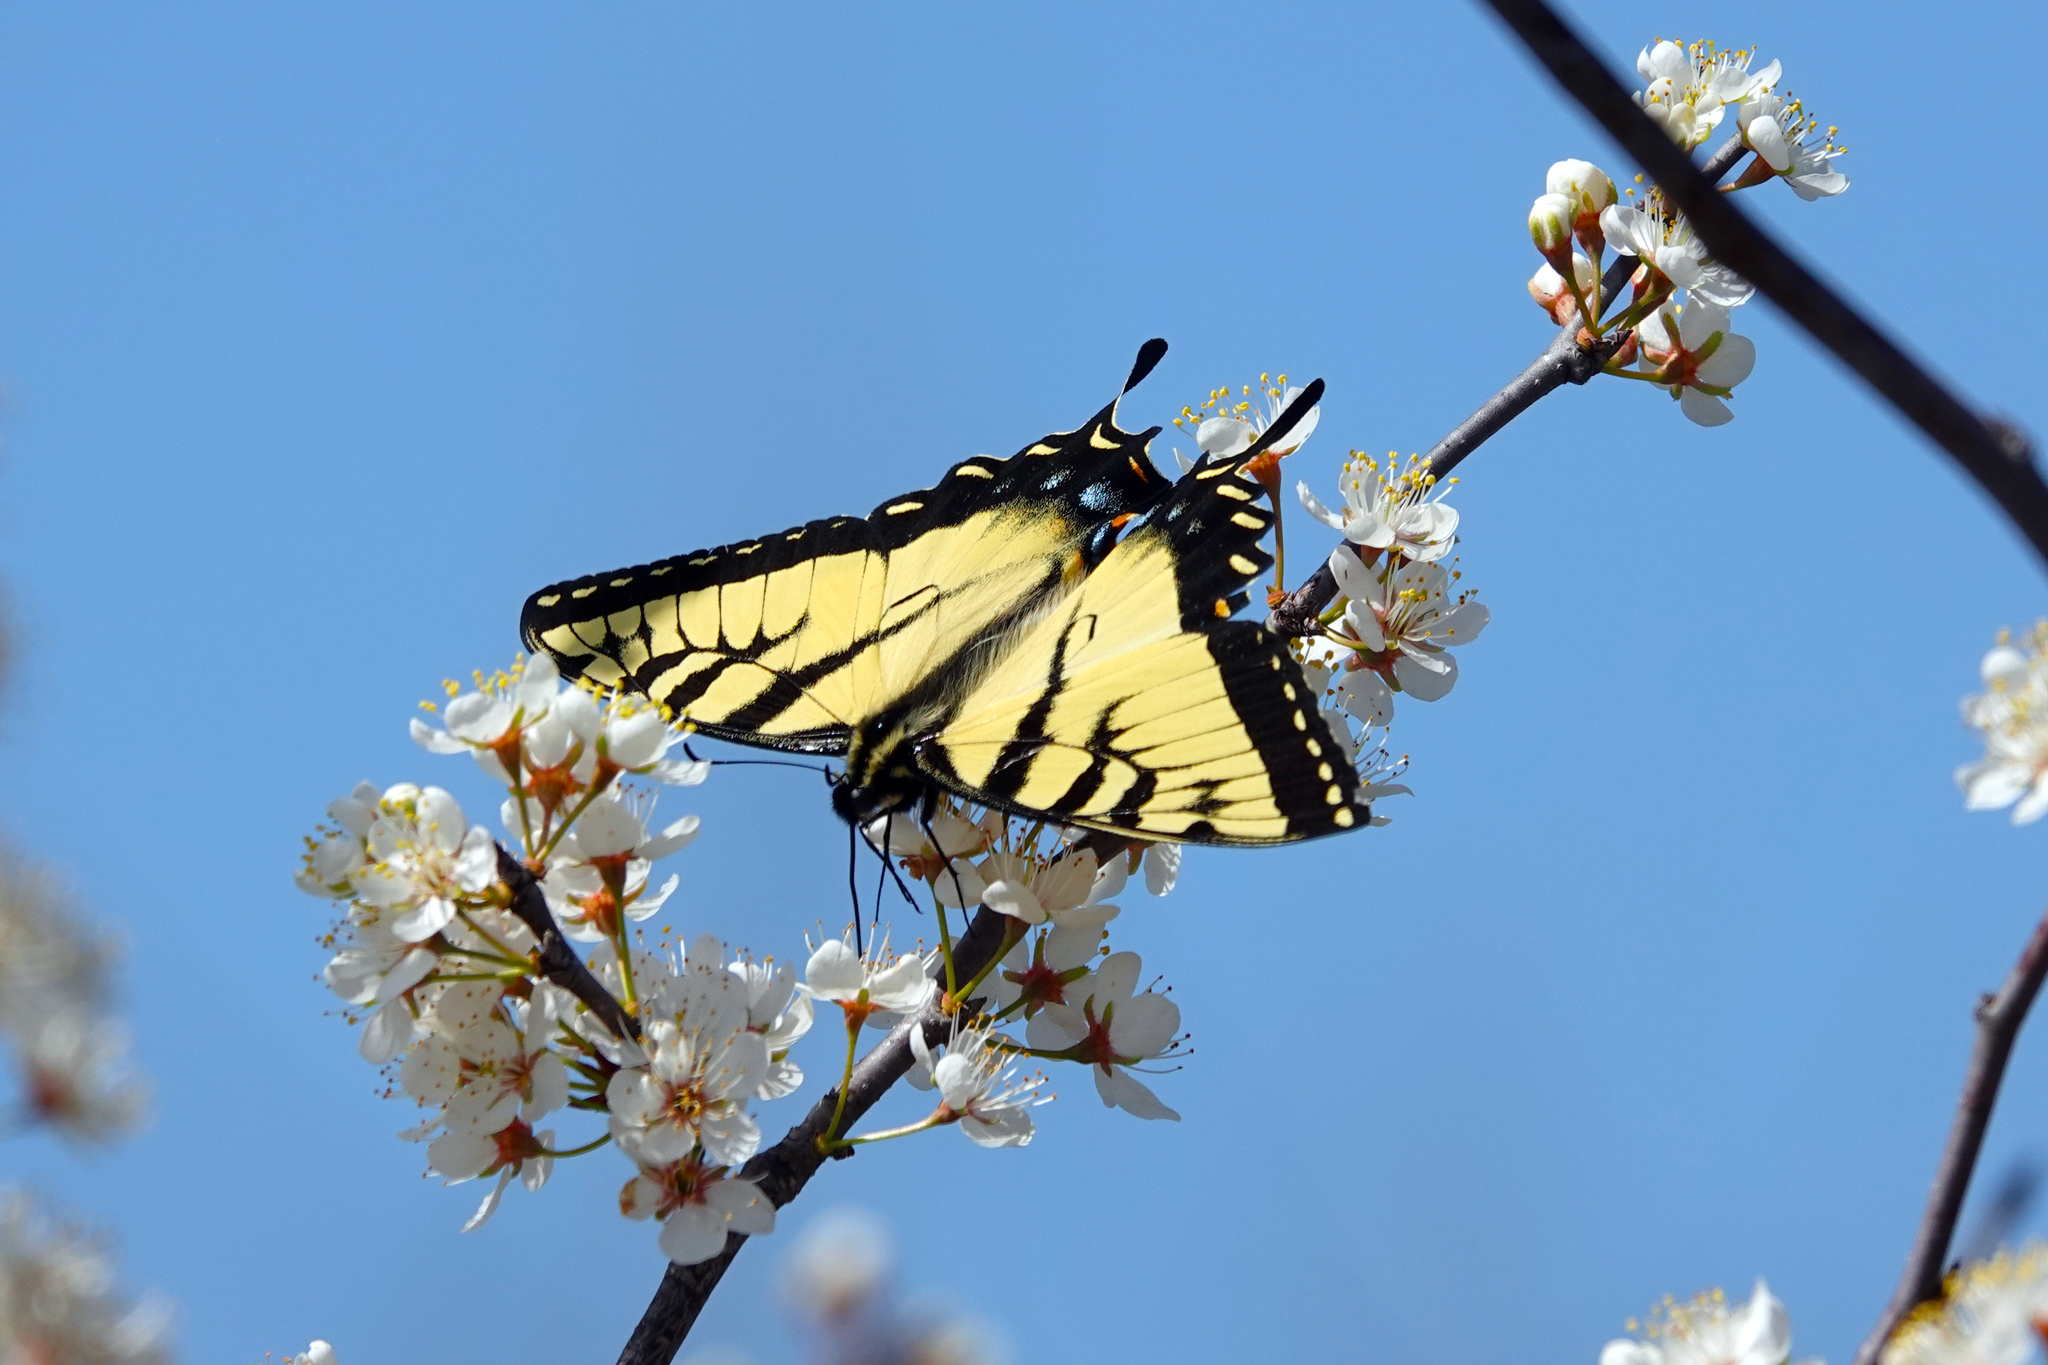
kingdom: Animalia
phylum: Arthropoda
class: Insecta
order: Lepidoptera
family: Papilionidae
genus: Papilio
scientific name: Papilio glaucus
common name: Tiger swallowtail
